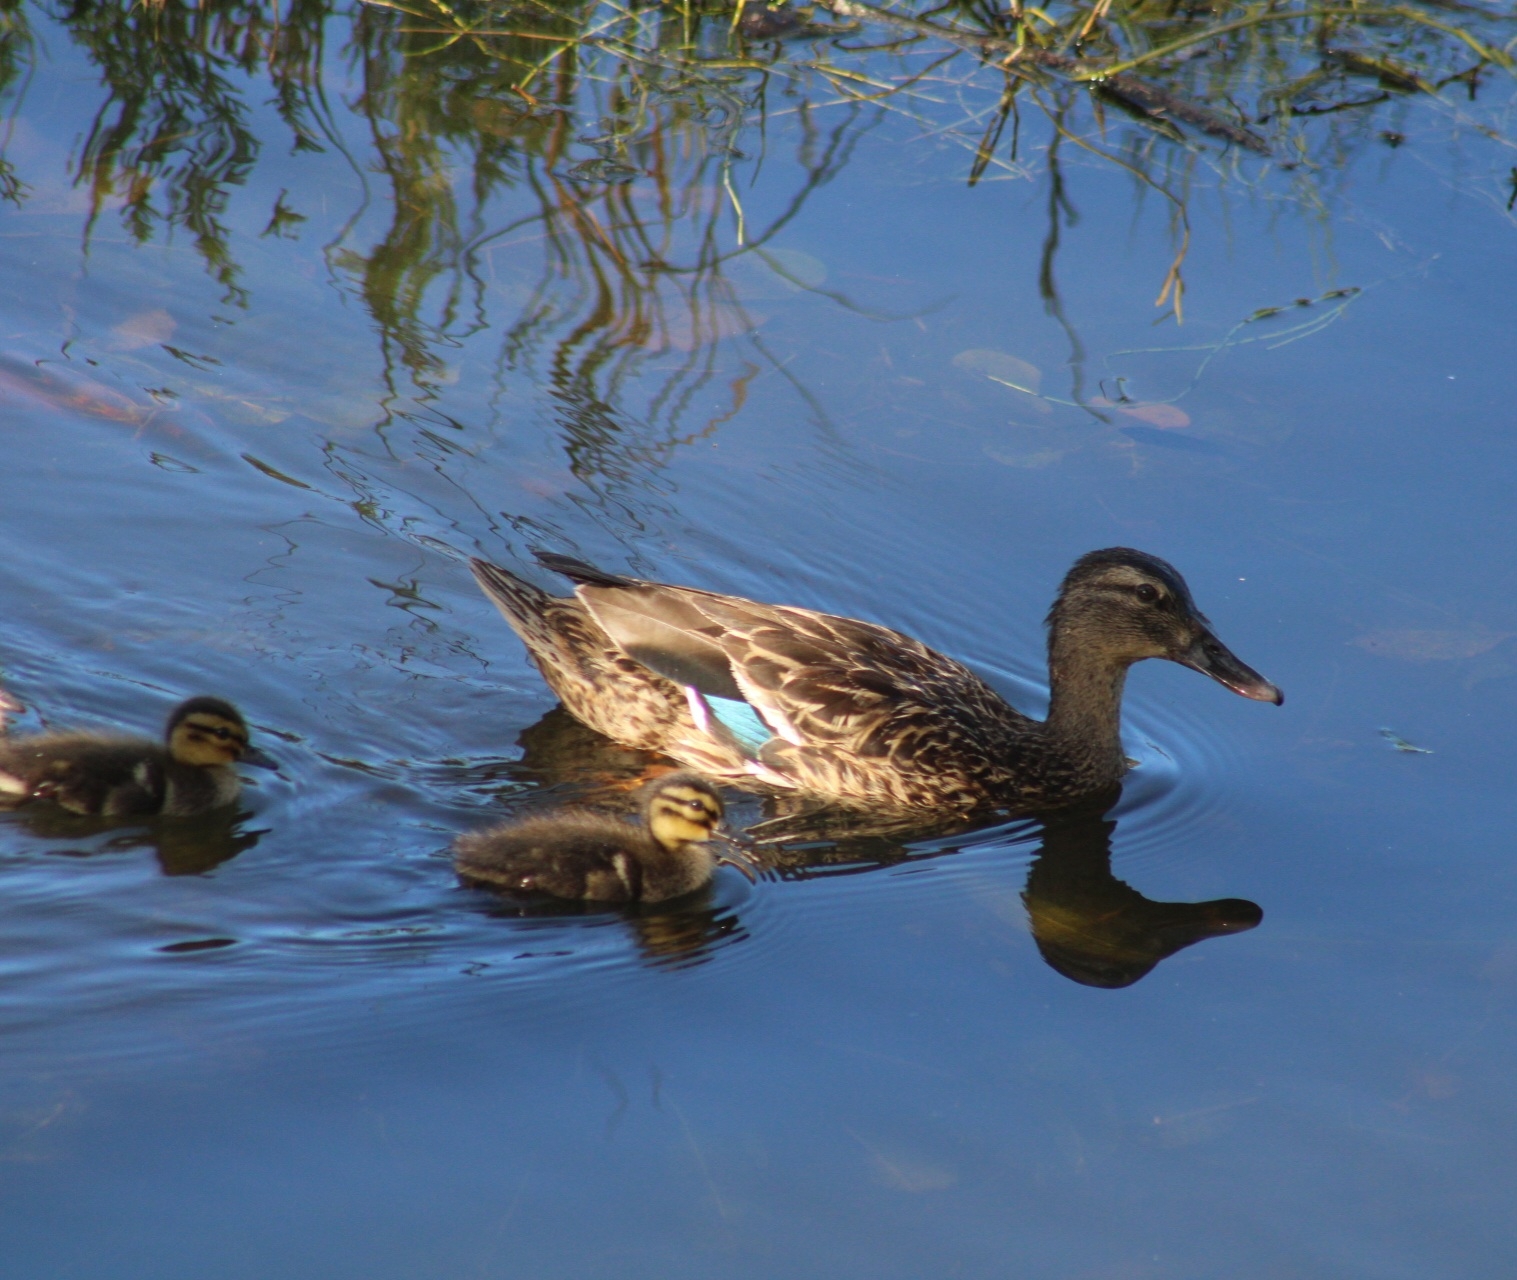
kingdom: Animalia
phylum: Chordata
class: Aves
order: Anseriformes
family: Anatidae
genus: Anas
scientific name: Anas
